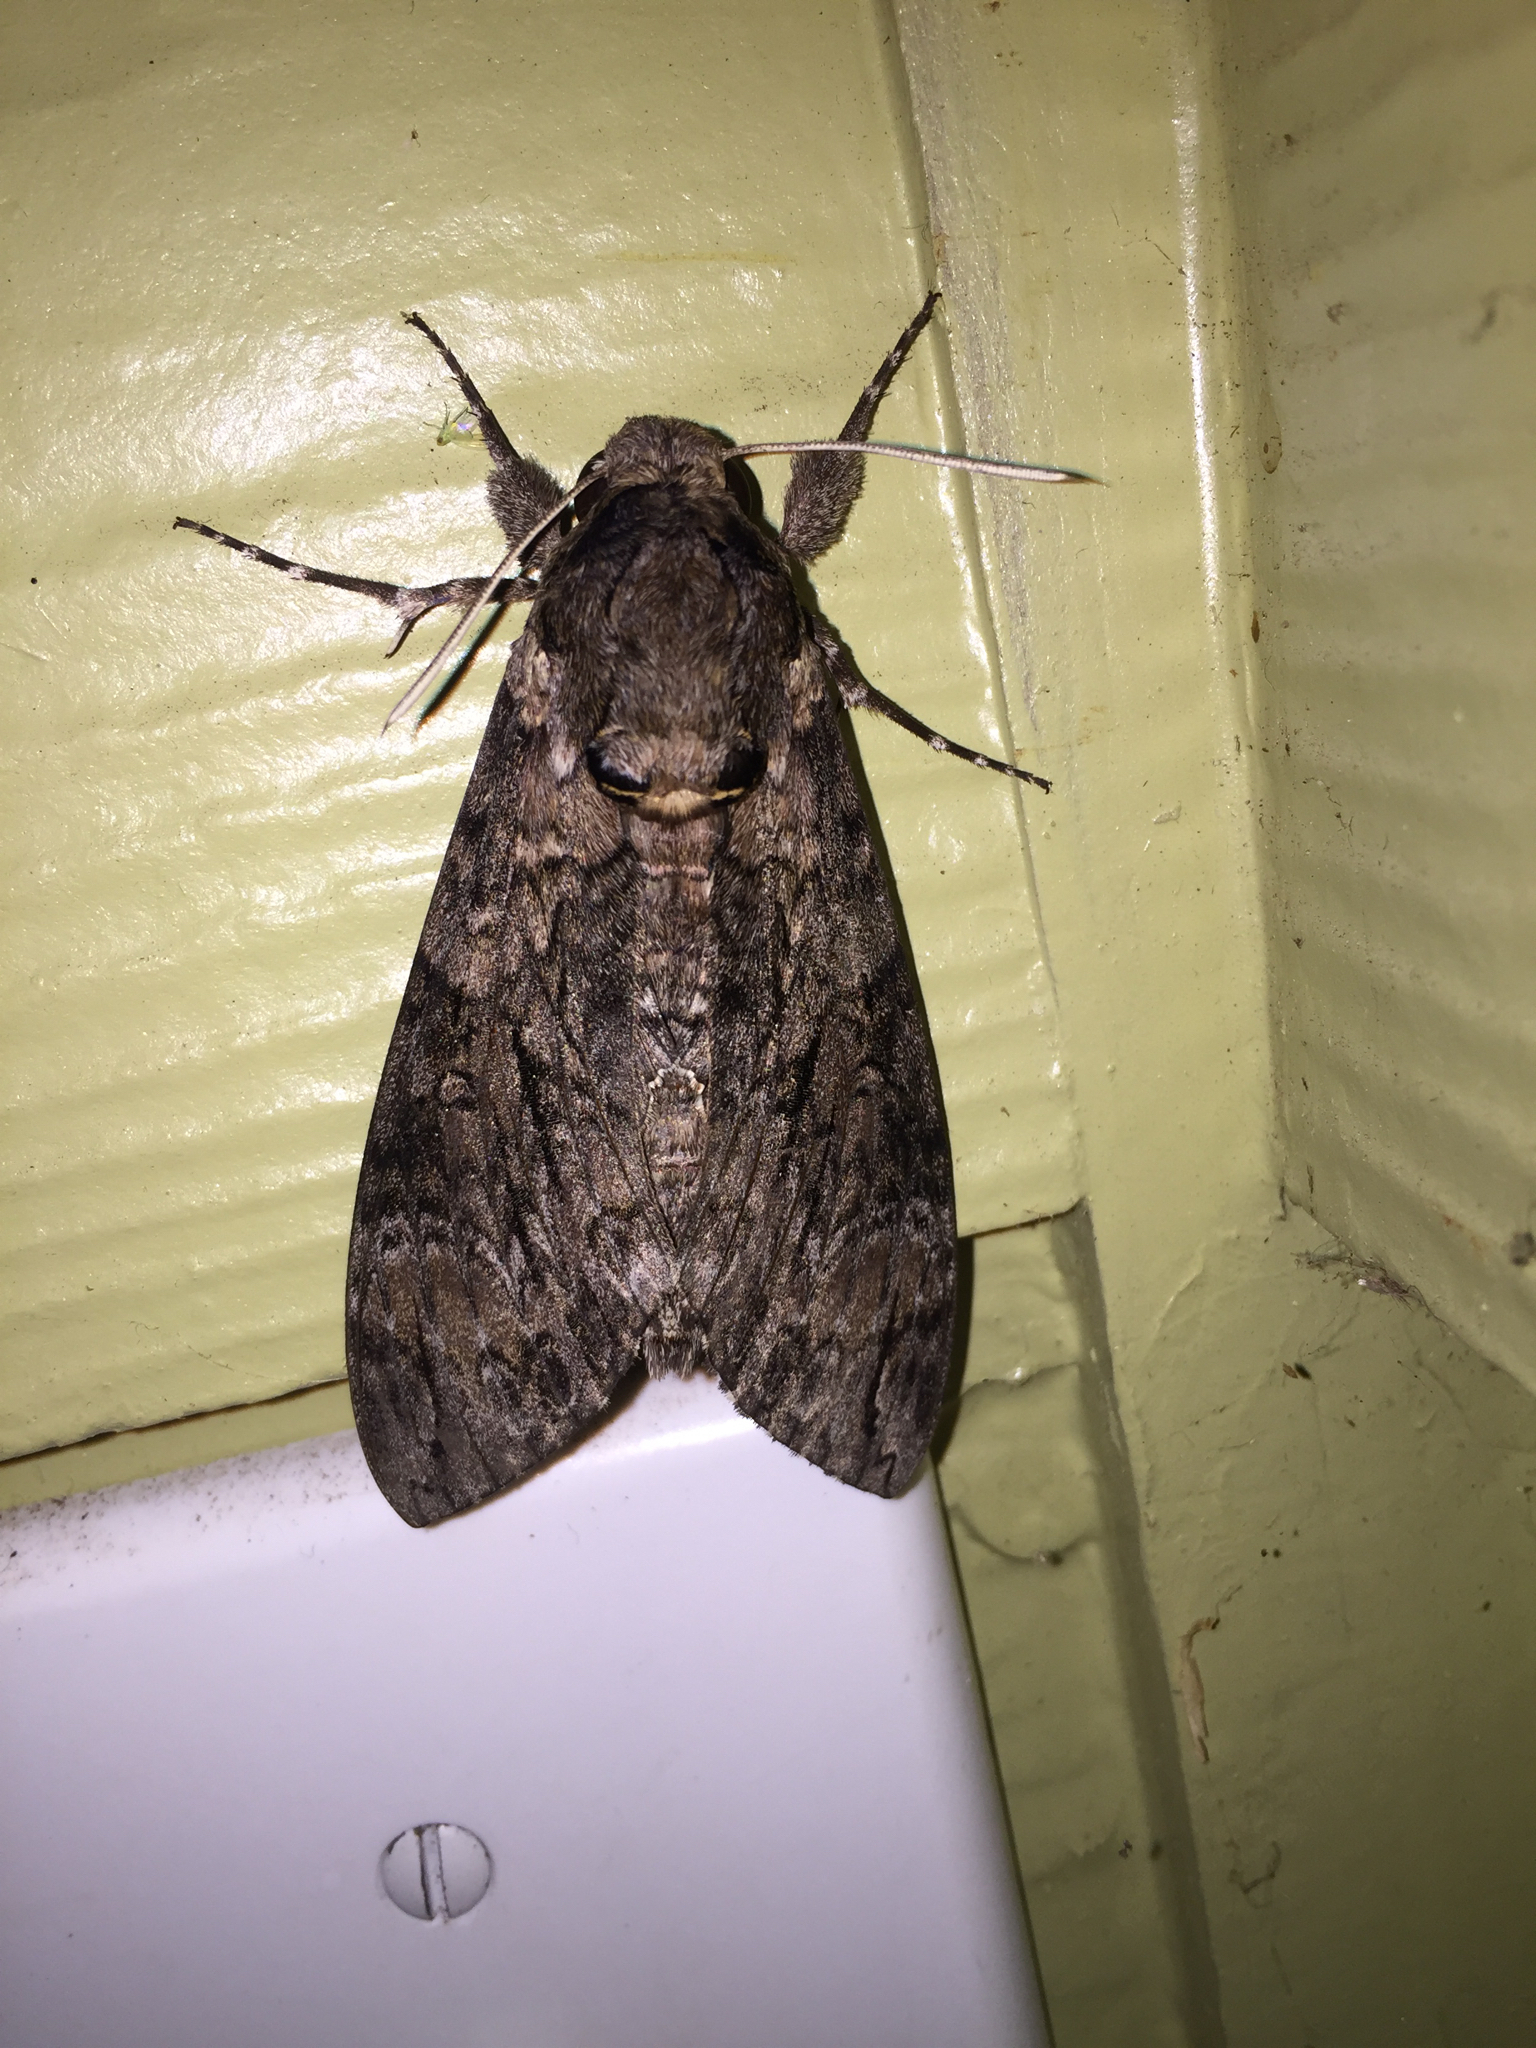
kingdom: Animalia
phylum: Arthropoda
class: Insecta
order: Lepidoptera
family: Sphingidae
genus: Agrius
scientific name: Agrius cingulata
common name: Pink-spotted hawkmoth
